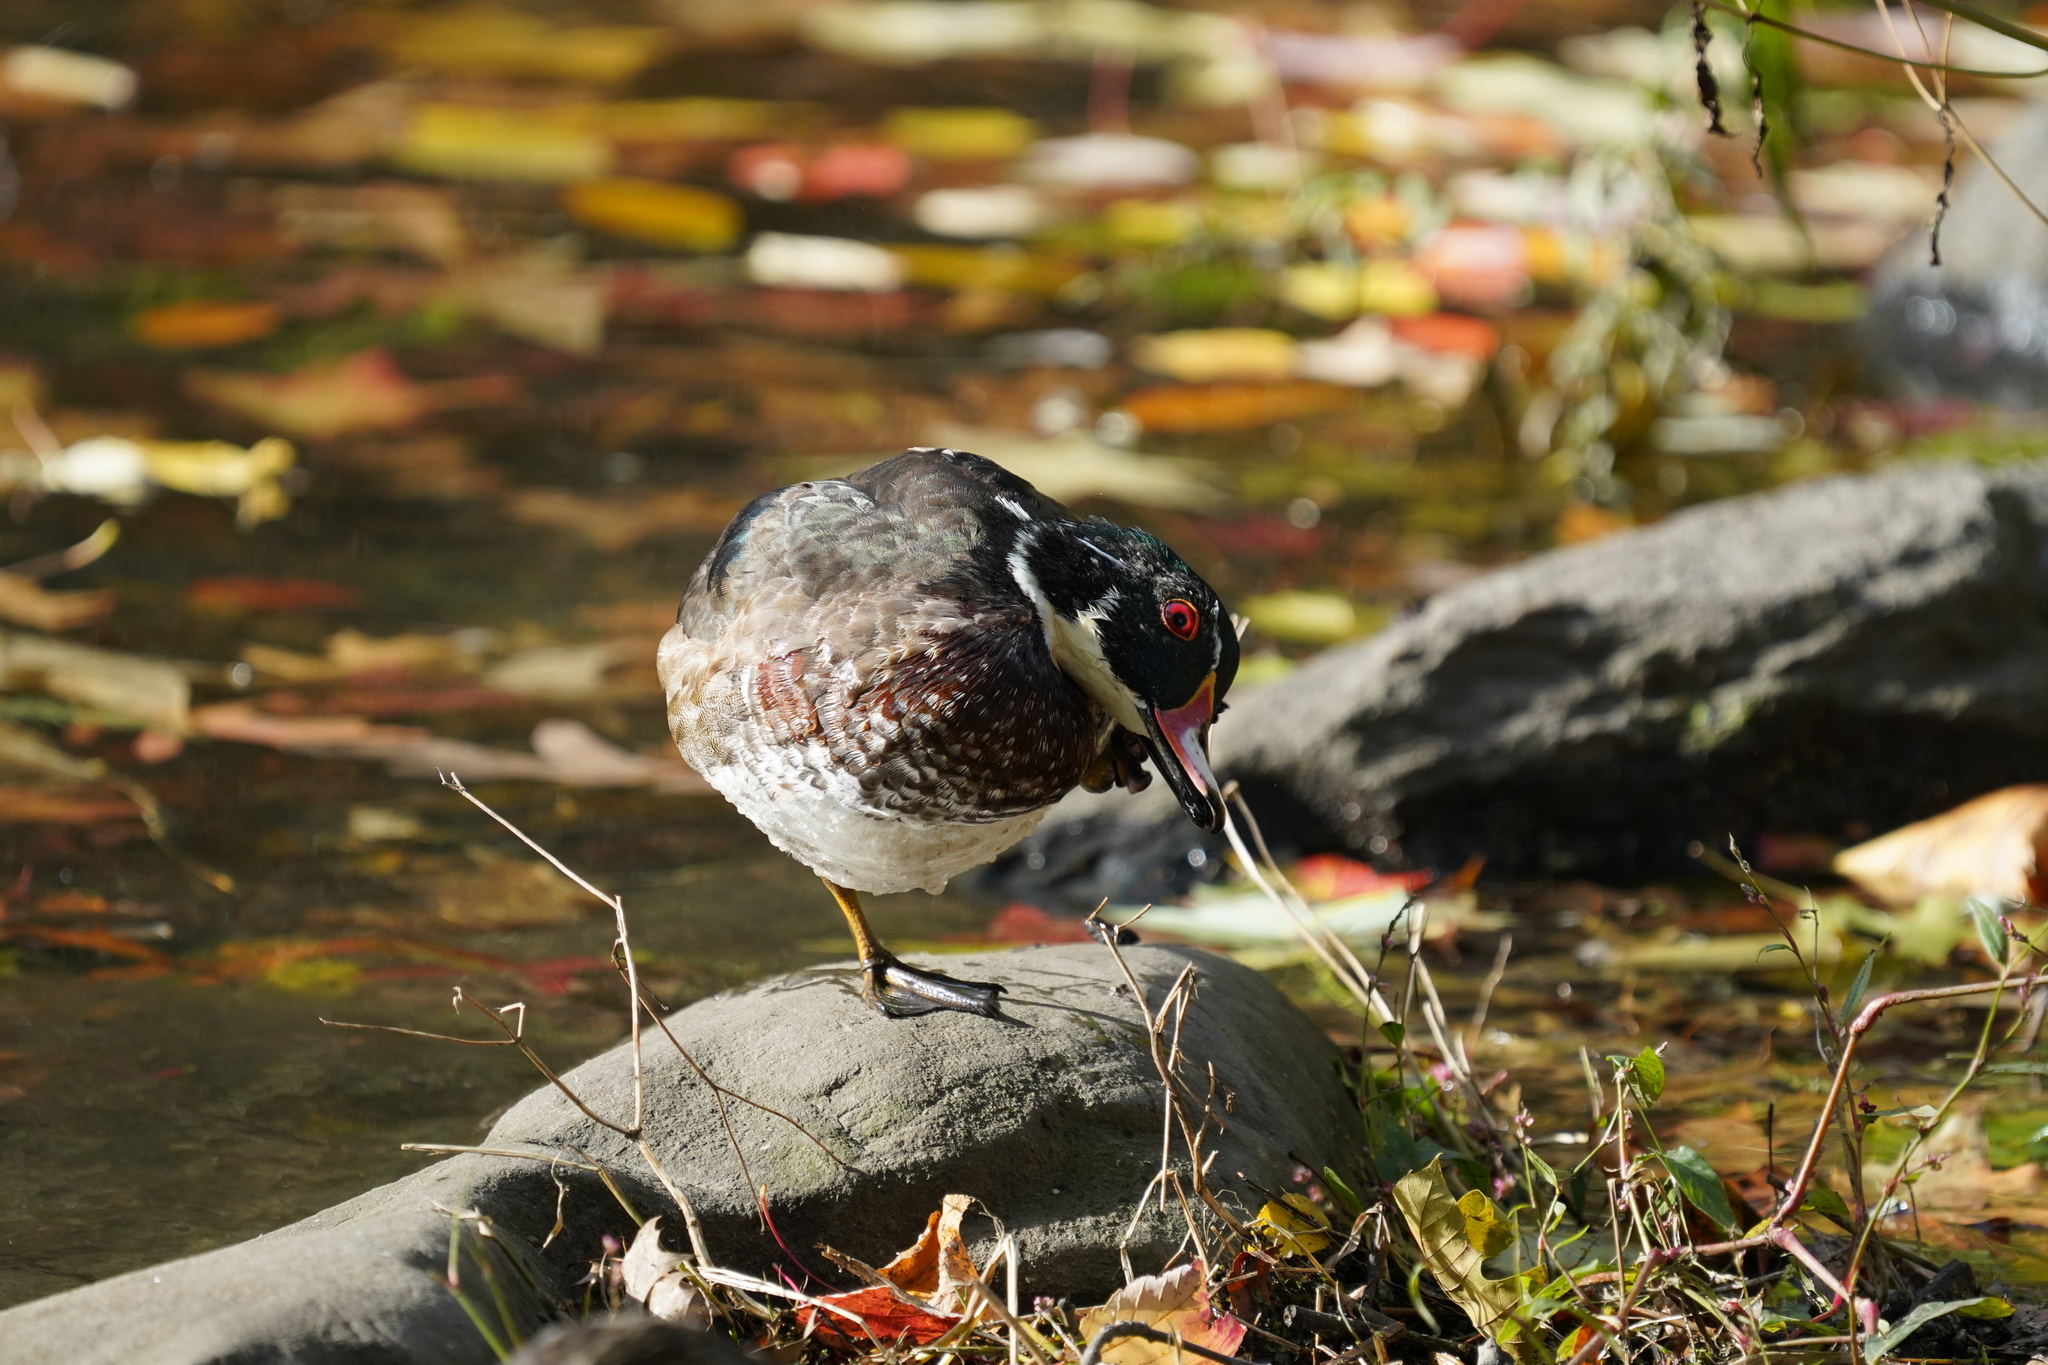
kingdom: Animalia
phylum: Chordata
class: Aves
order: Anseriformes
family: Anatidae
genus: Aix
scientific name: Aix sponsa
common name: Wood duck
